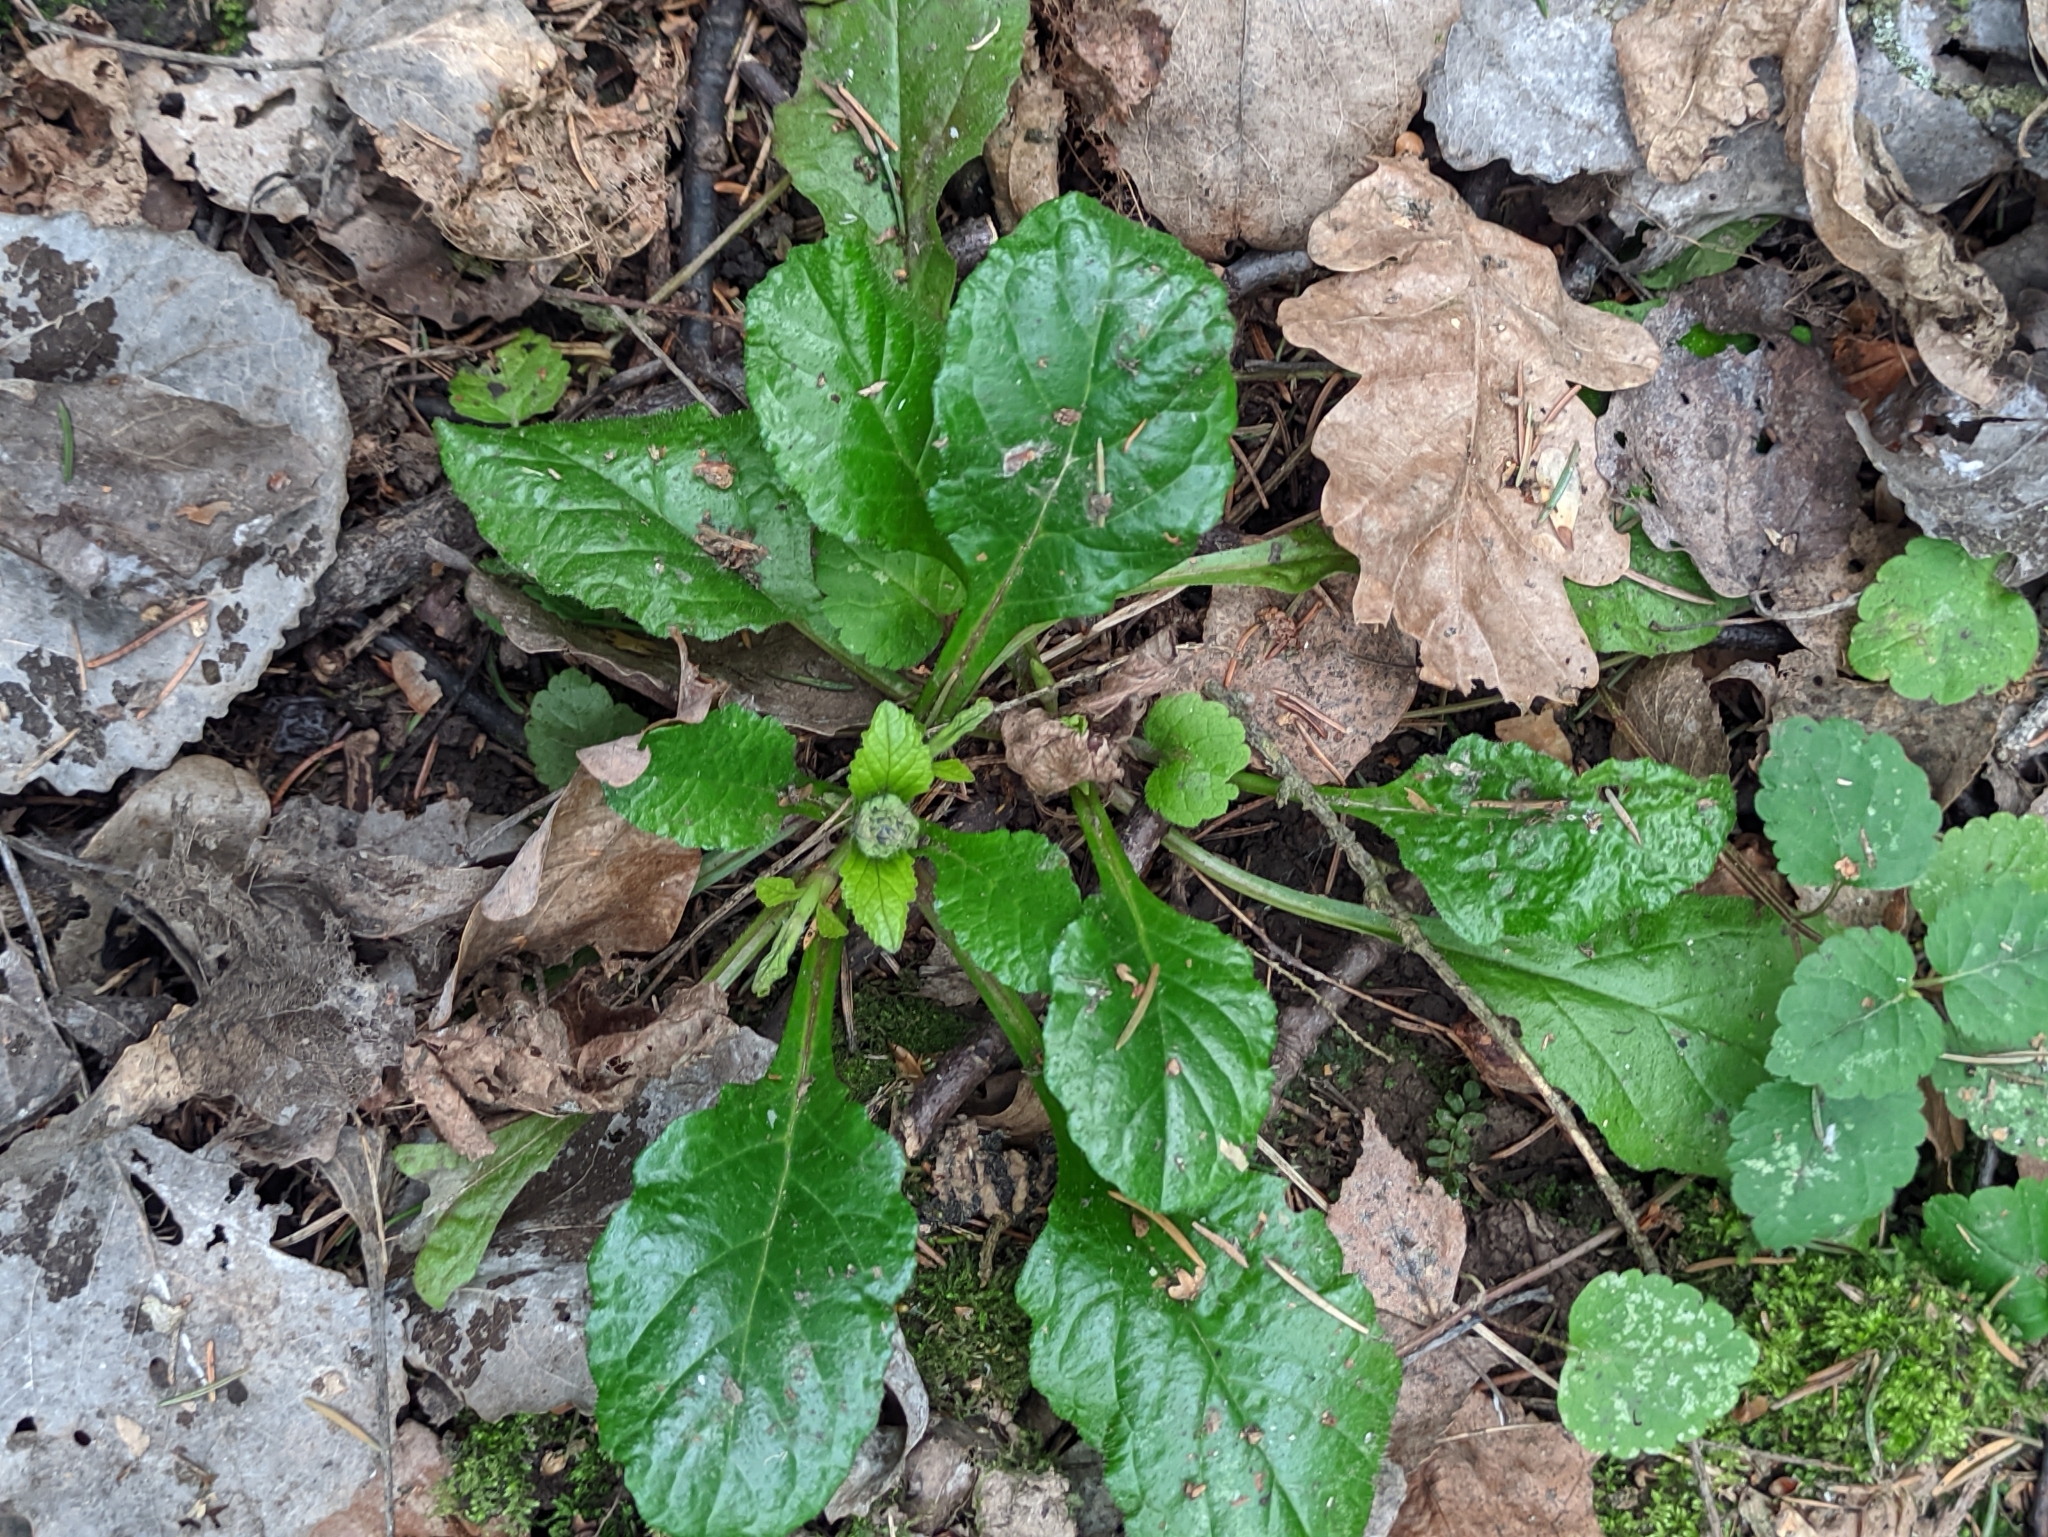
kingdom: Plantae
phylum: Tracheophyta
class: Magnoliopsida
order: Lamiales
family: Lamiaceae
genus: Ajuga
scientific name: Ajuga reptans
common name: Bugle
